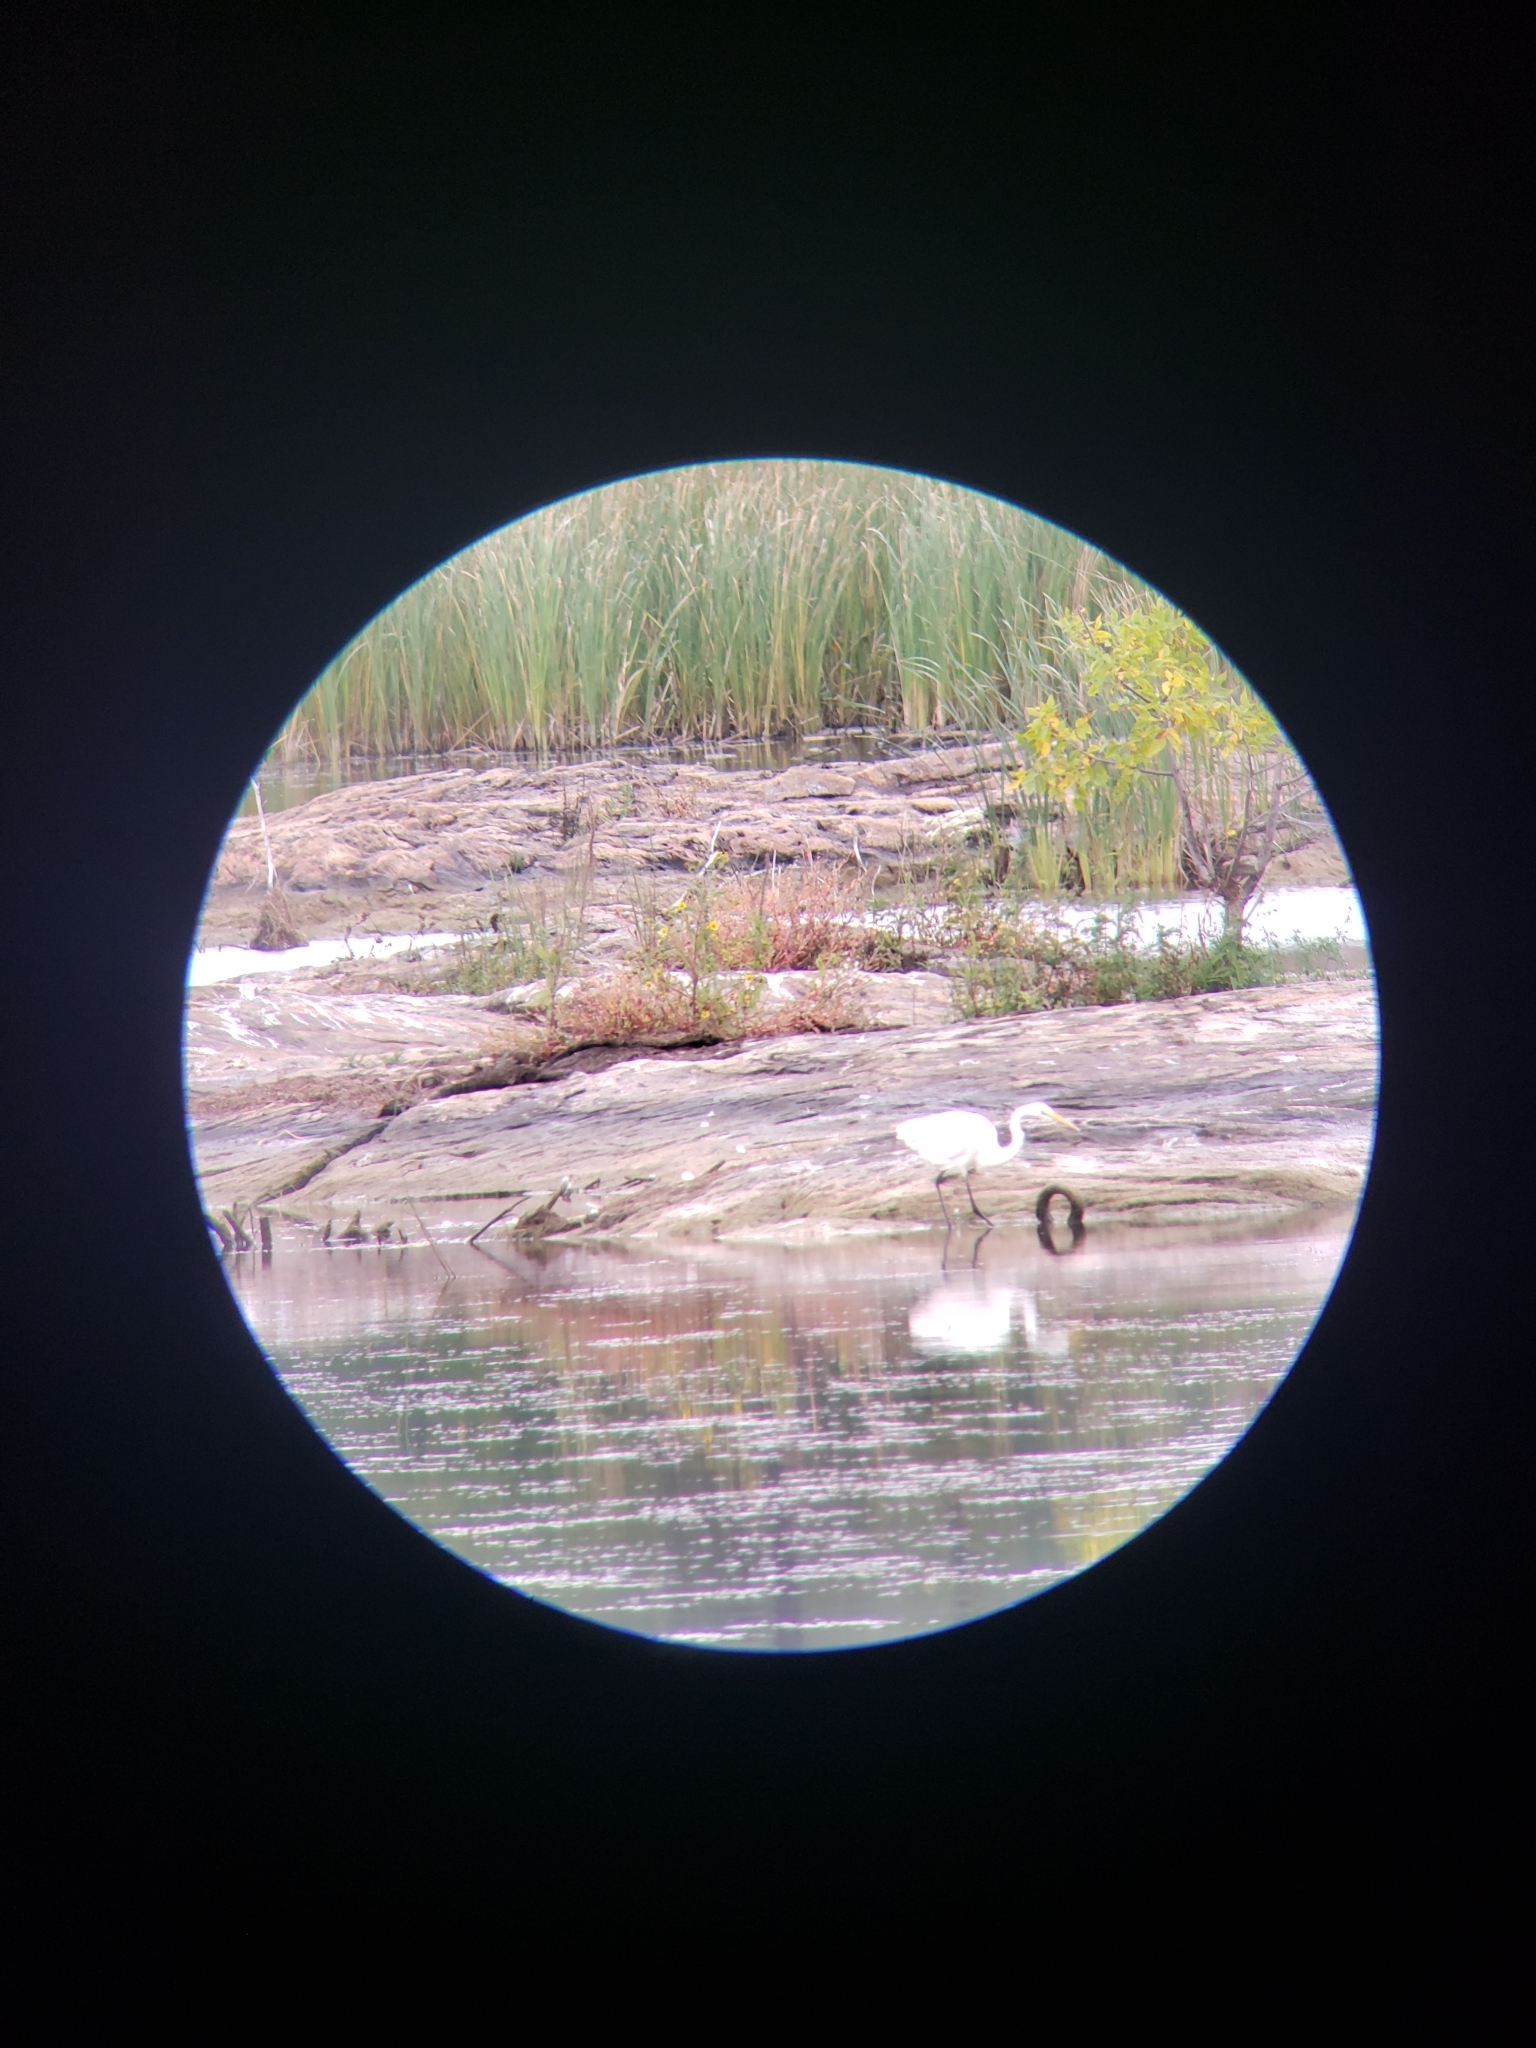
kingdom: Animalia
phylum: Chordata
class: Aves
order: Pelecaniformes
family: Ardeidae
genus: Ardea
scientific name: Ardea alba
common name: Great egret
